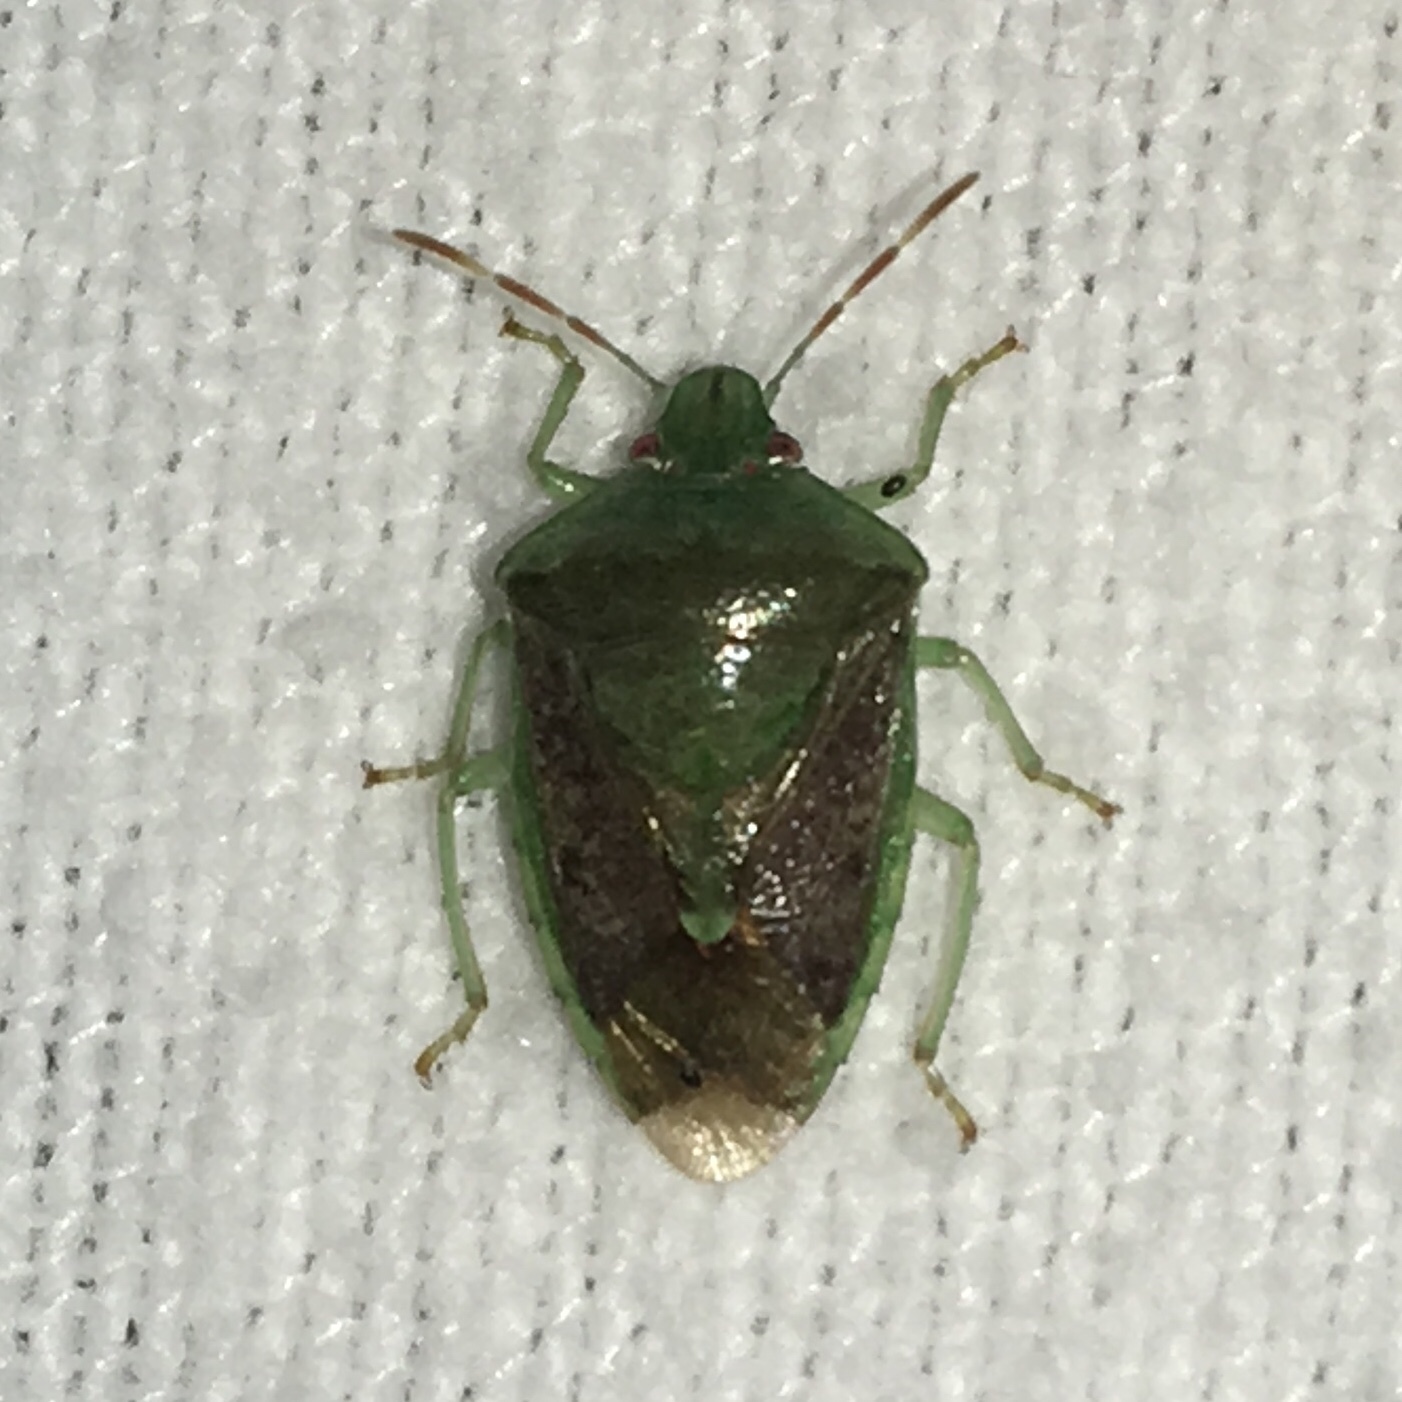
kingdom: Animalia
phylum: Arthropoda
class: Insecta
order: Hemiptera
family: Pentatomidae
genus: Banasa
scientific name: Banasa calva
